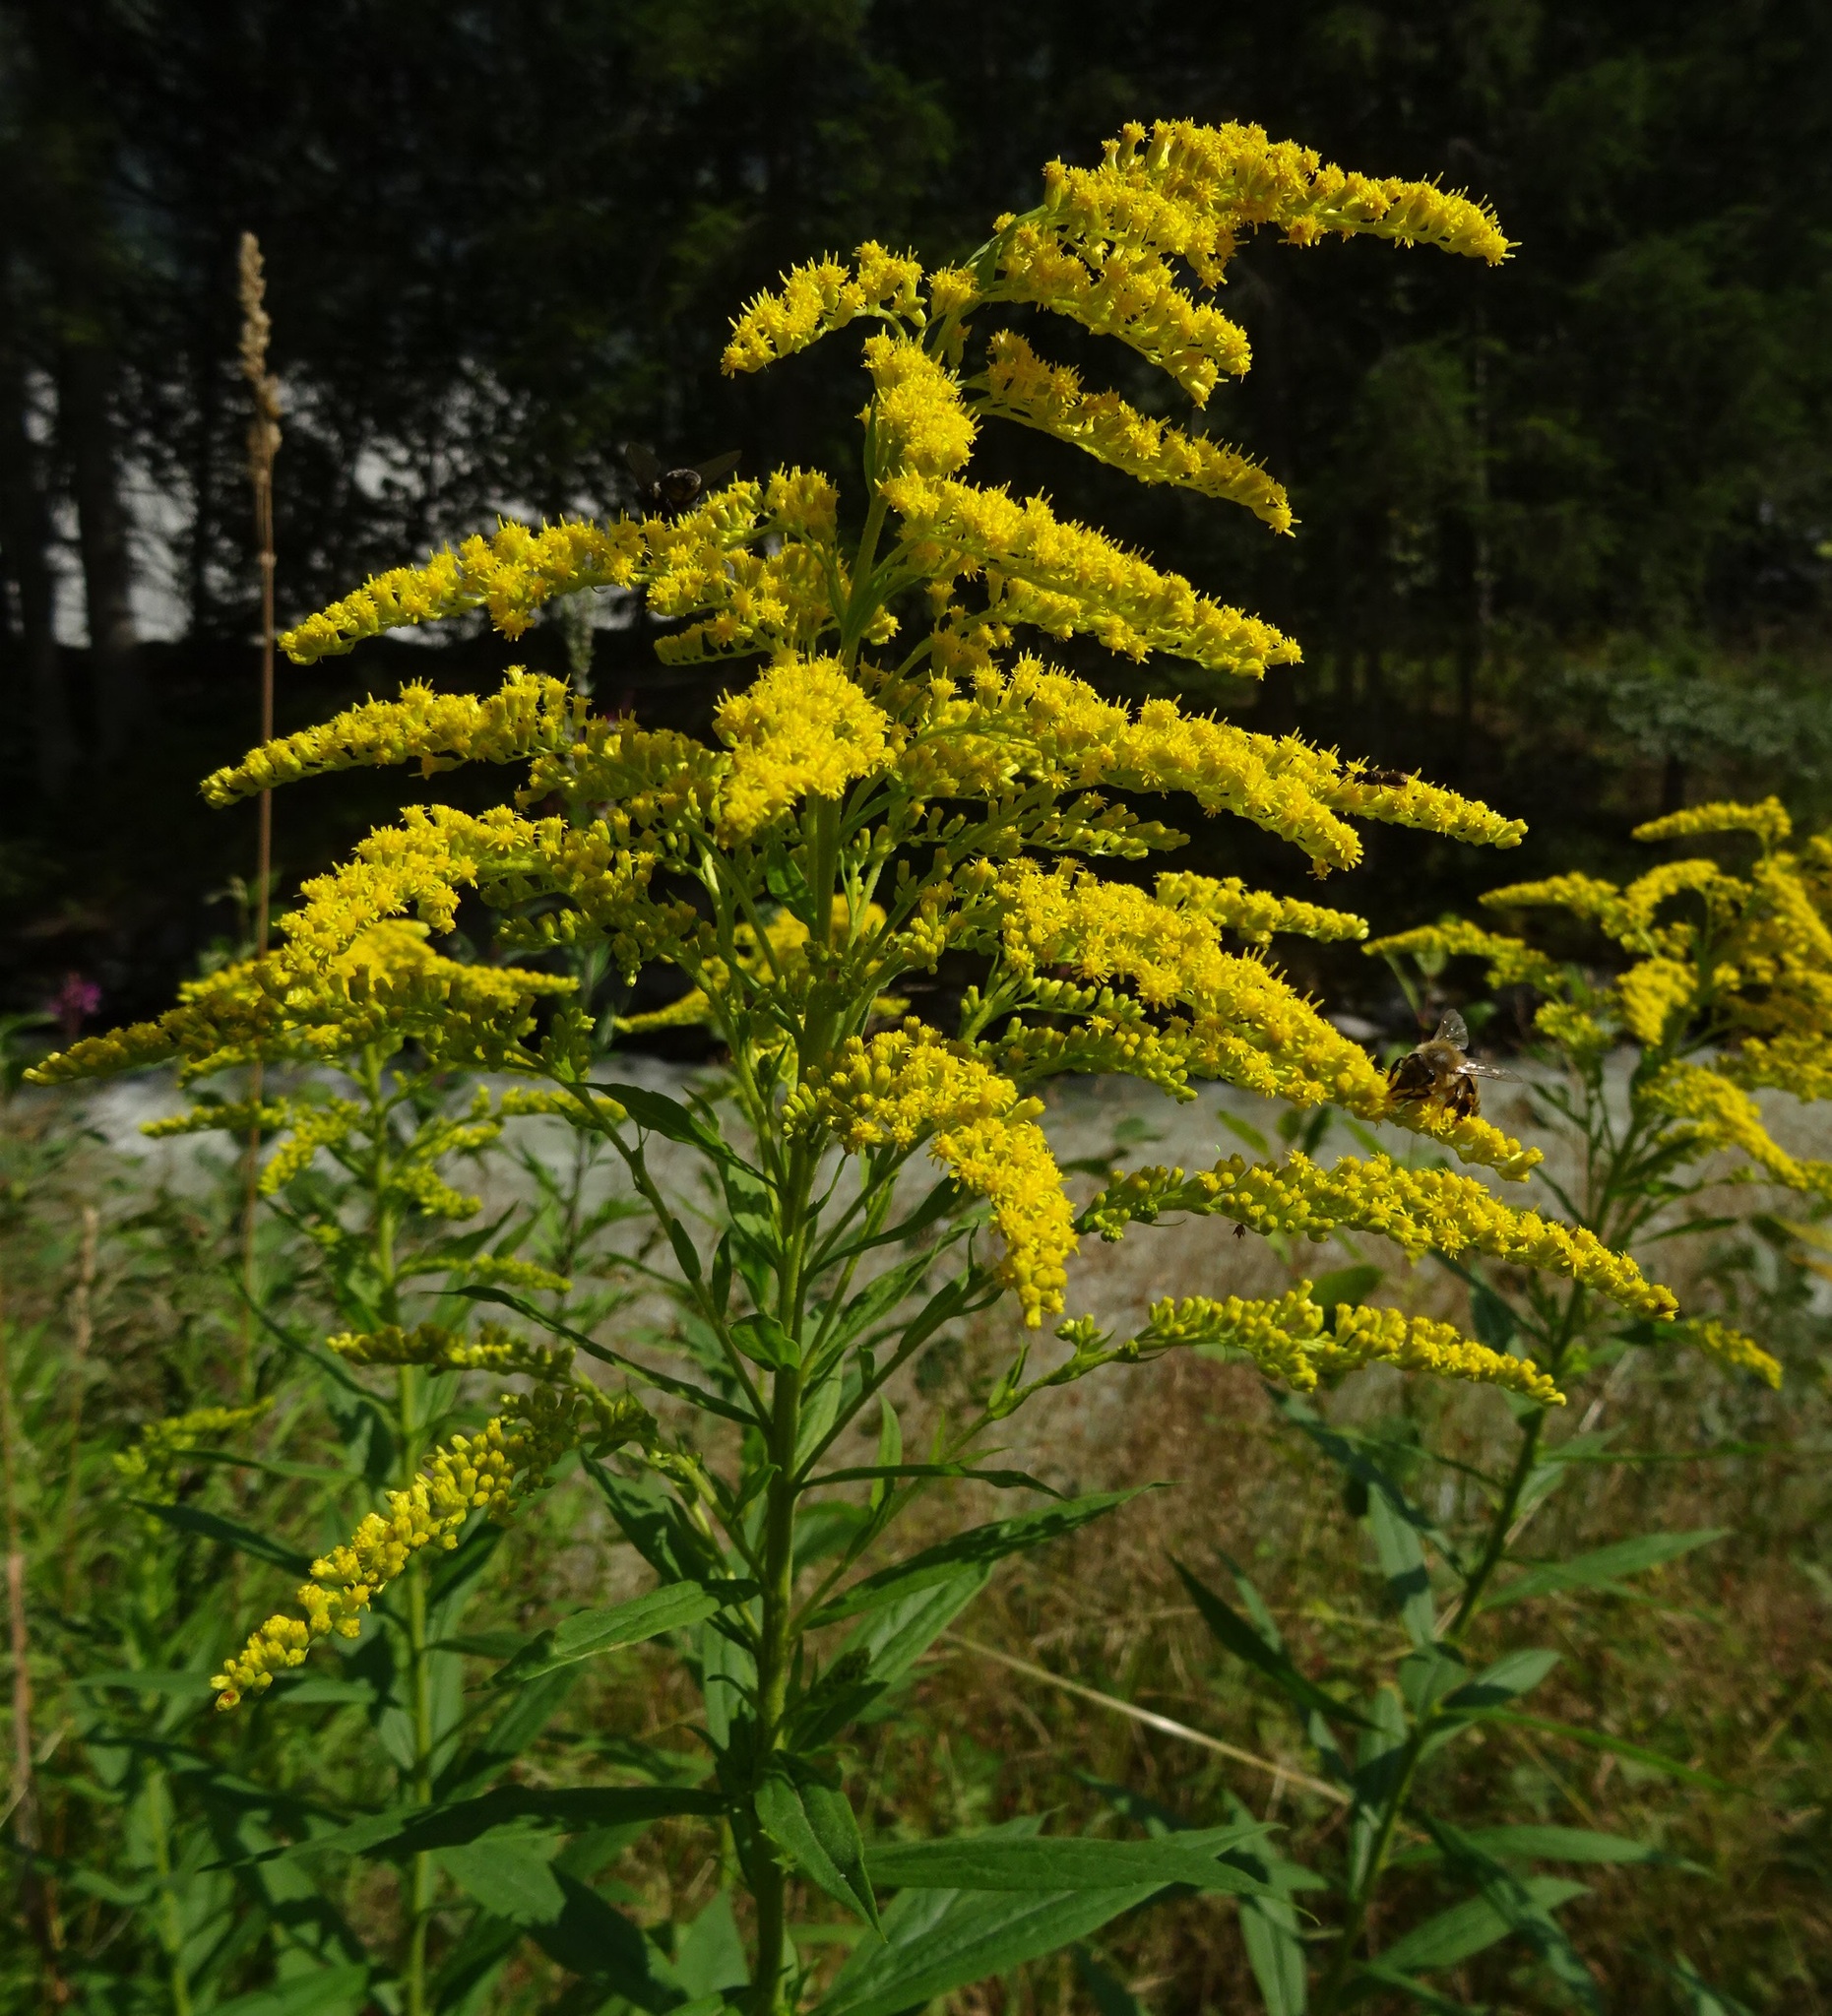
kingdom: Plantae
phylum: Tracheophyta
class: Magnoliopsida
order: Asterales
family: Asteraceae
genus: Solidago
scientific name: Solidago canadensis
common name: Canada goldenrod
